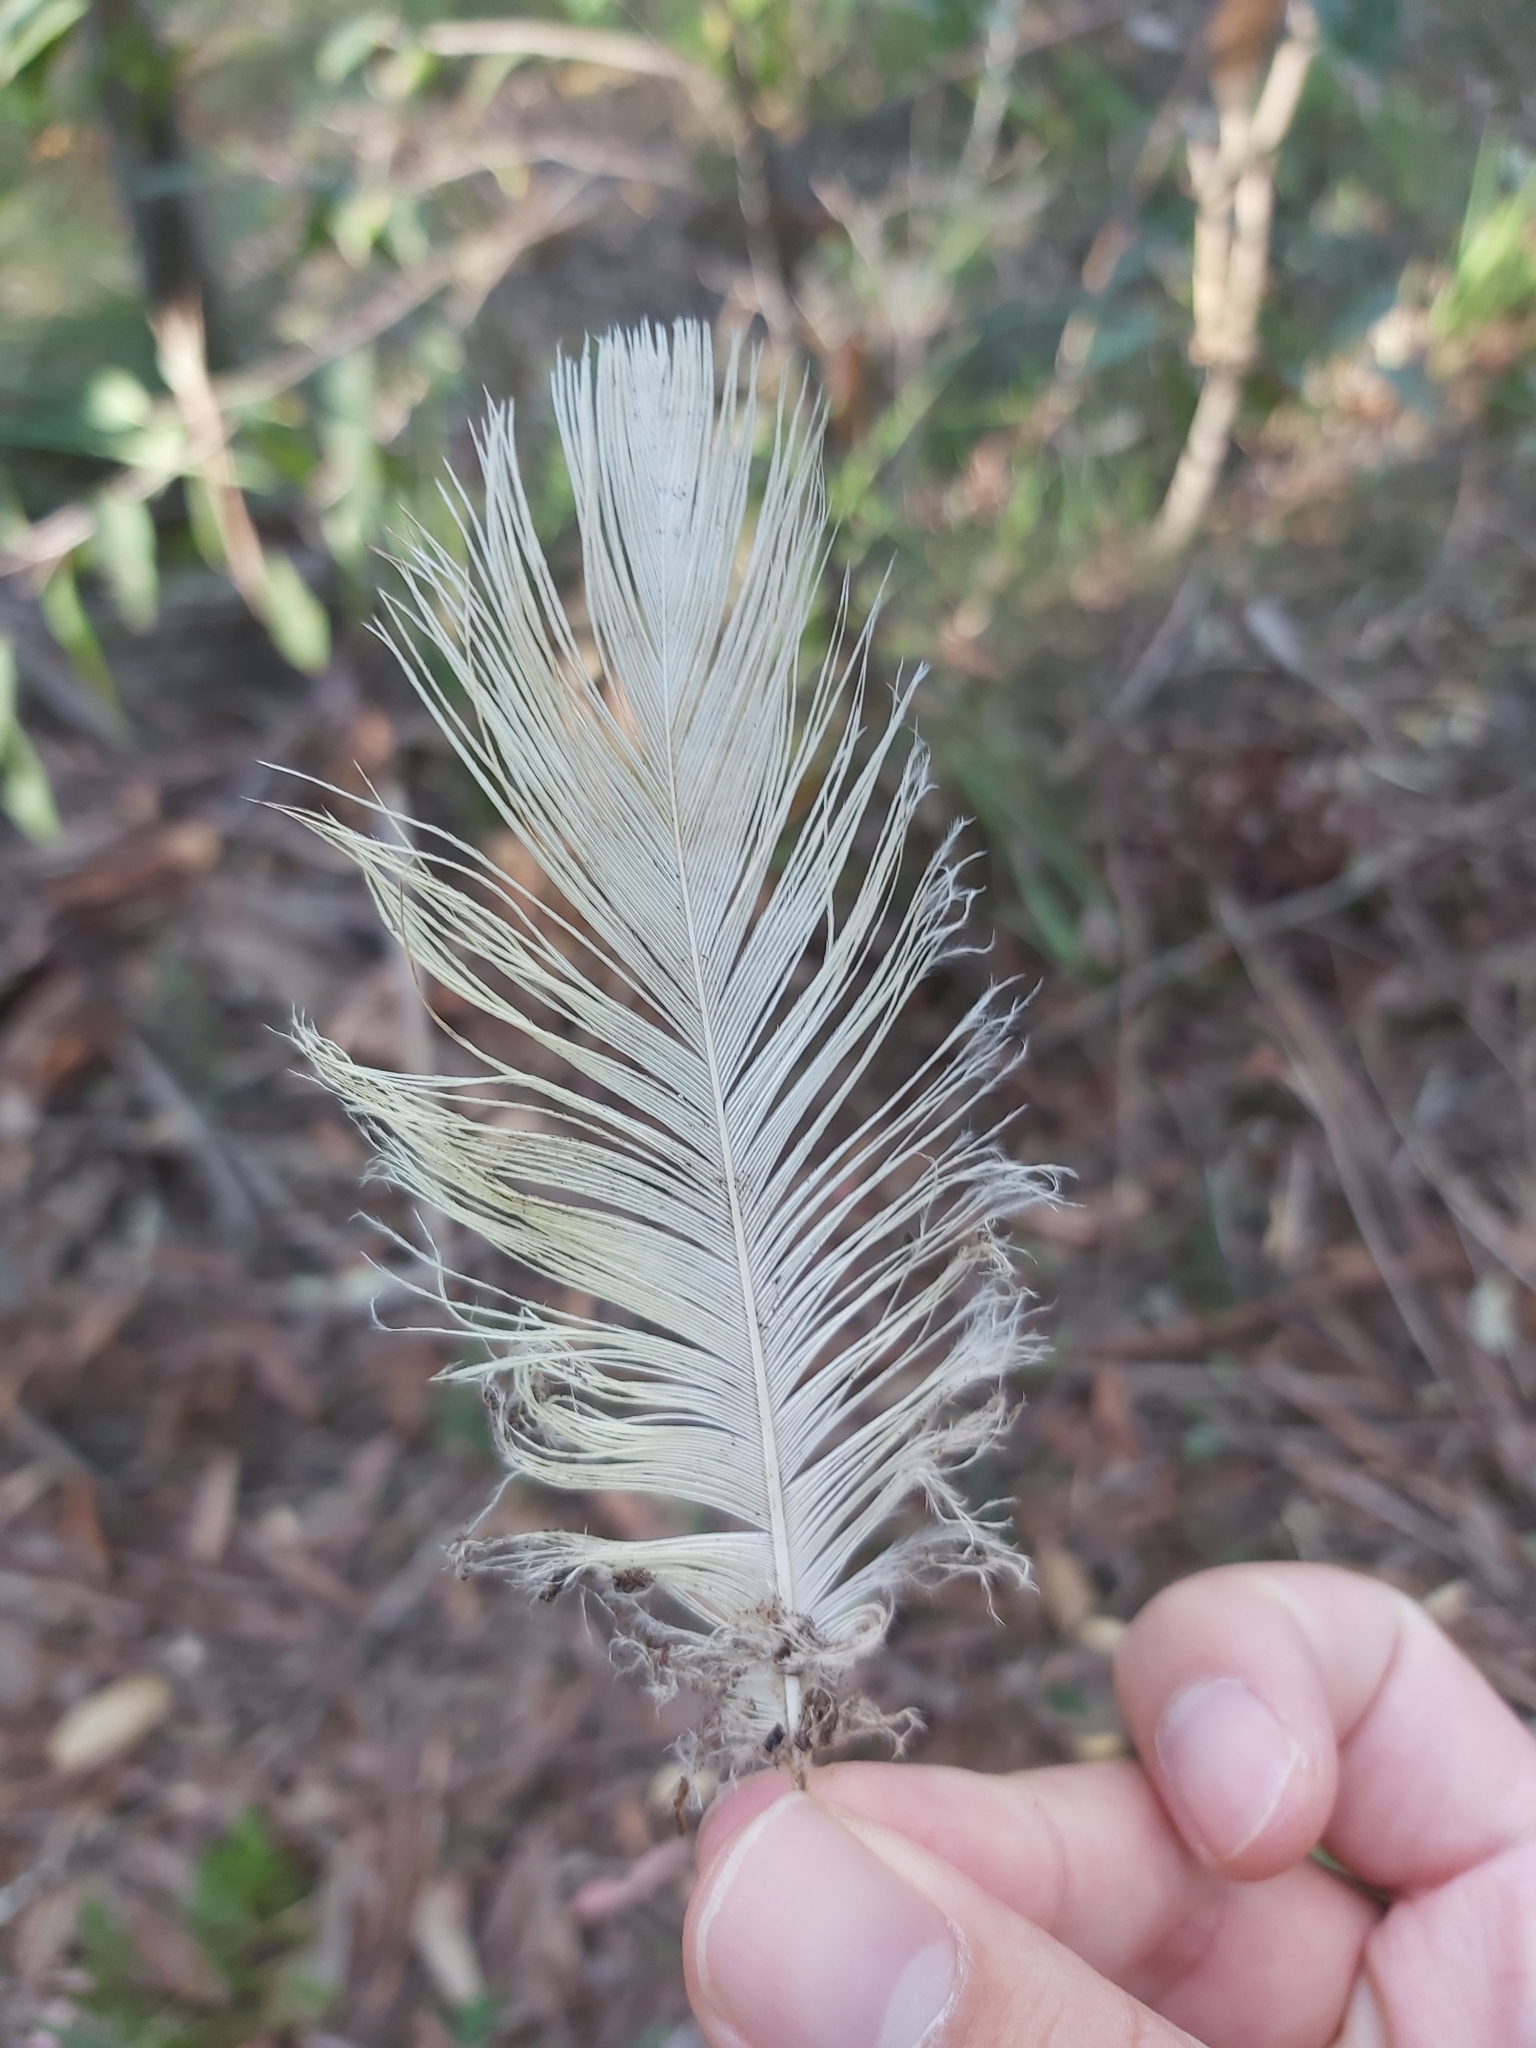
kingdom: Animalia
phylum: Chordata
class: Aves
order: Psittaciformes
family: Psittacidae
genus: Cacatua
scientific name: Cacatua galerita
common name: Sulphur-crested cockatoo
